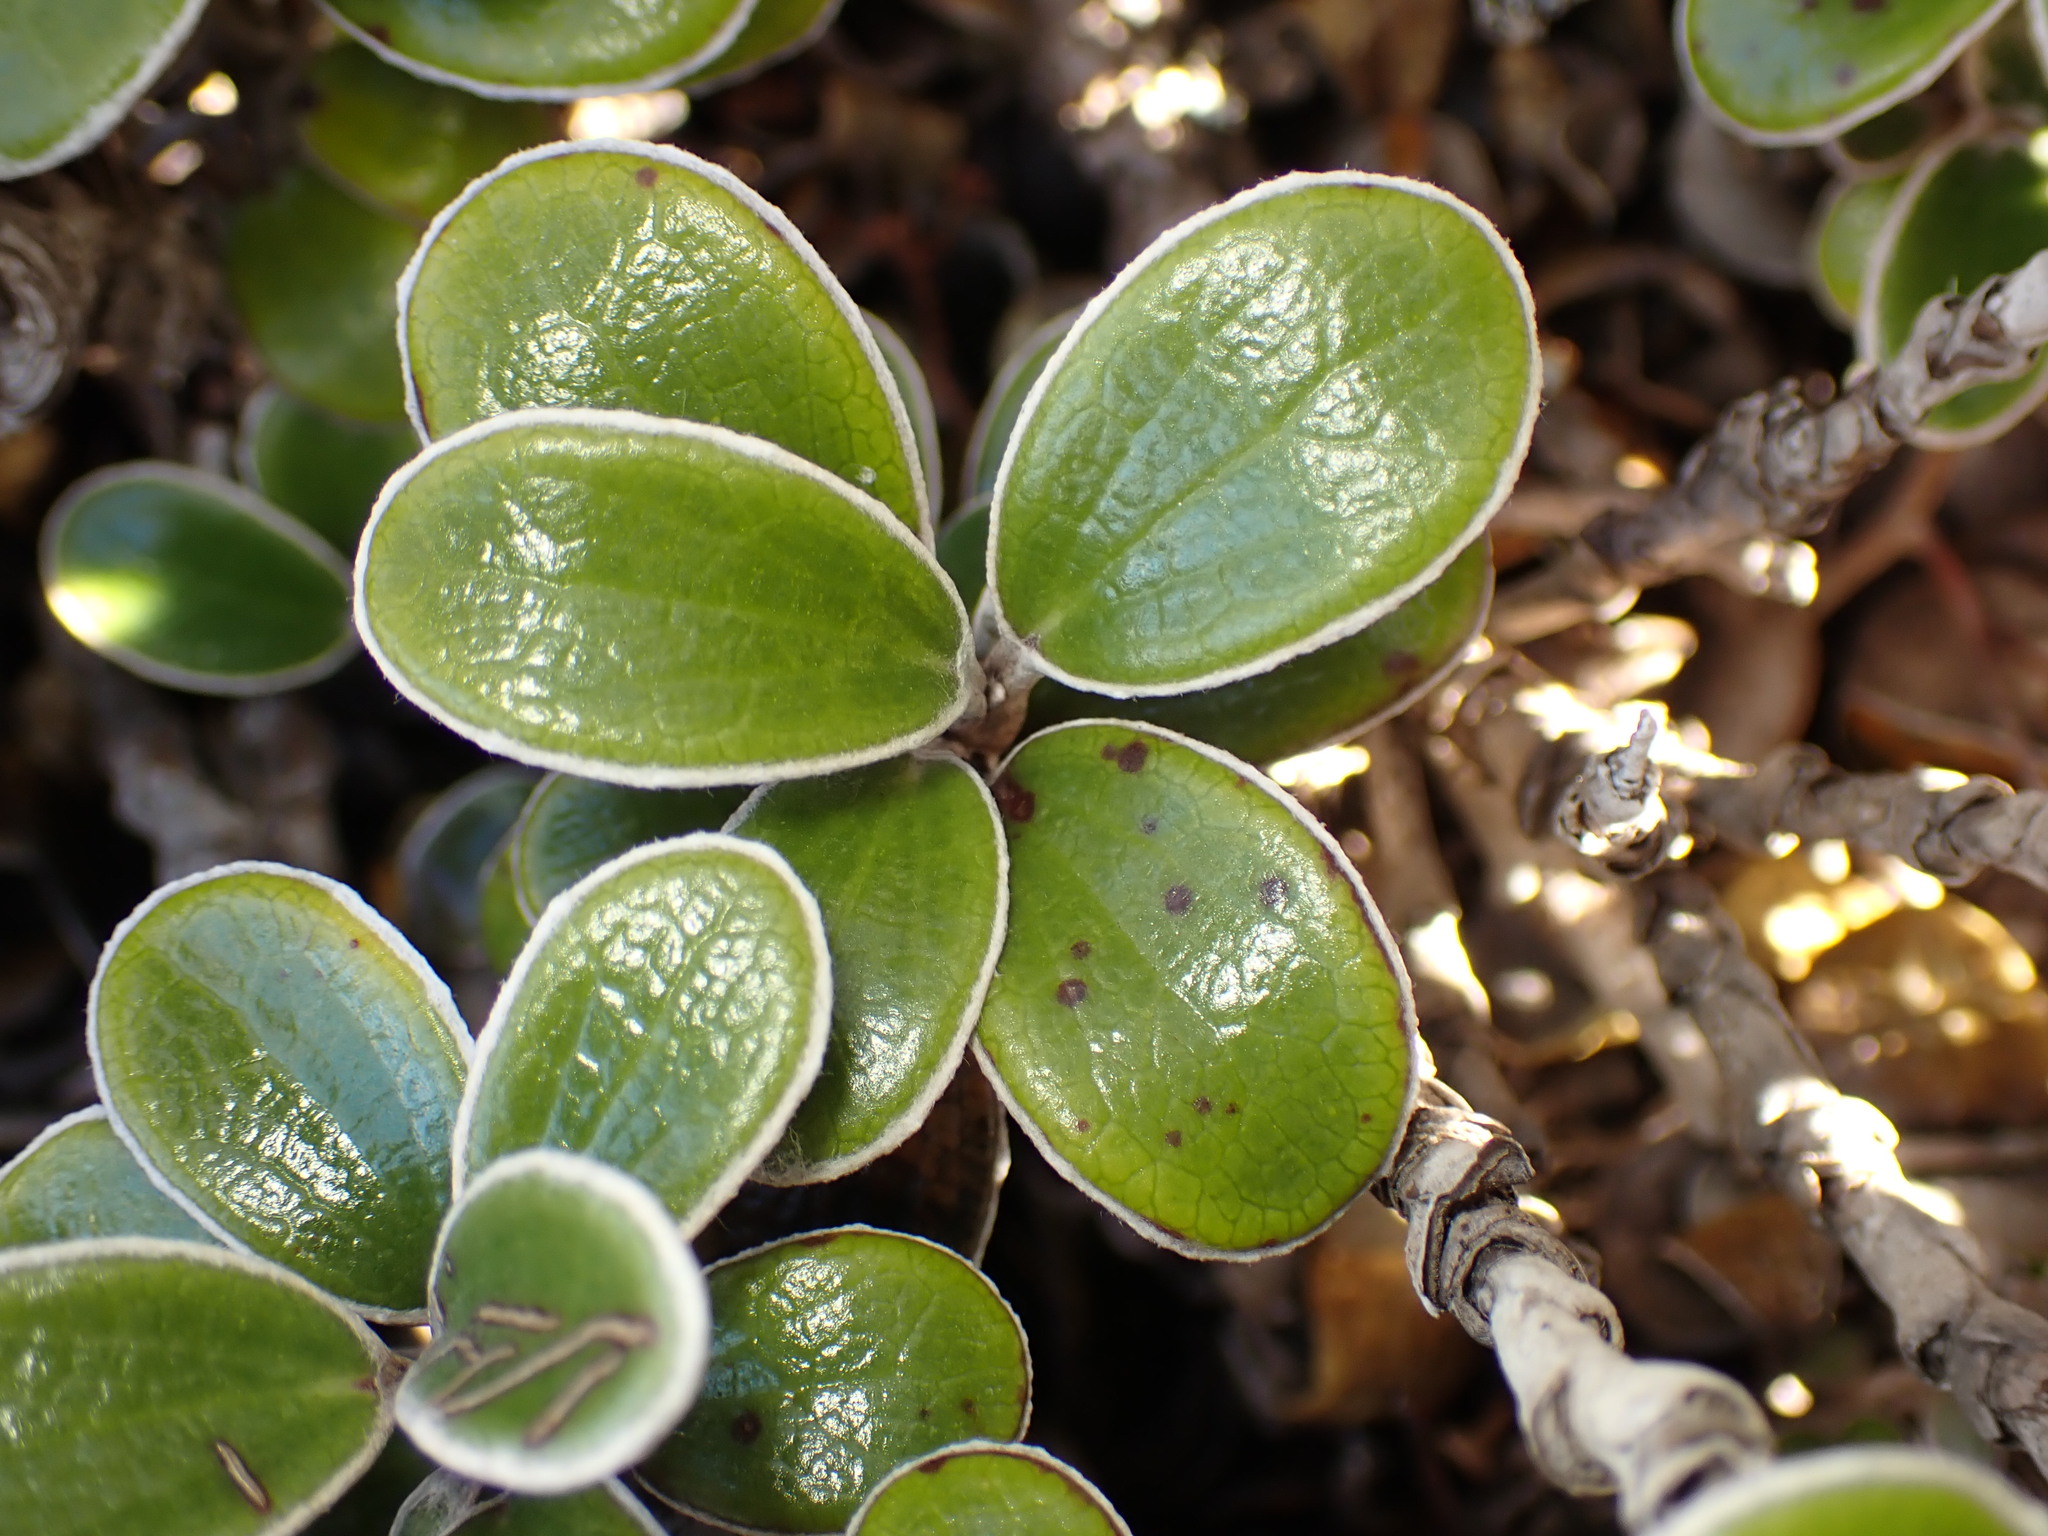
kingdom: Plantae
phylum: Tracheophyta
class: Magnoliopsida
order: Asterales
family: Asteraceae
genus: Brachyglottis
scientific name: Brachyglottis bidwillii
